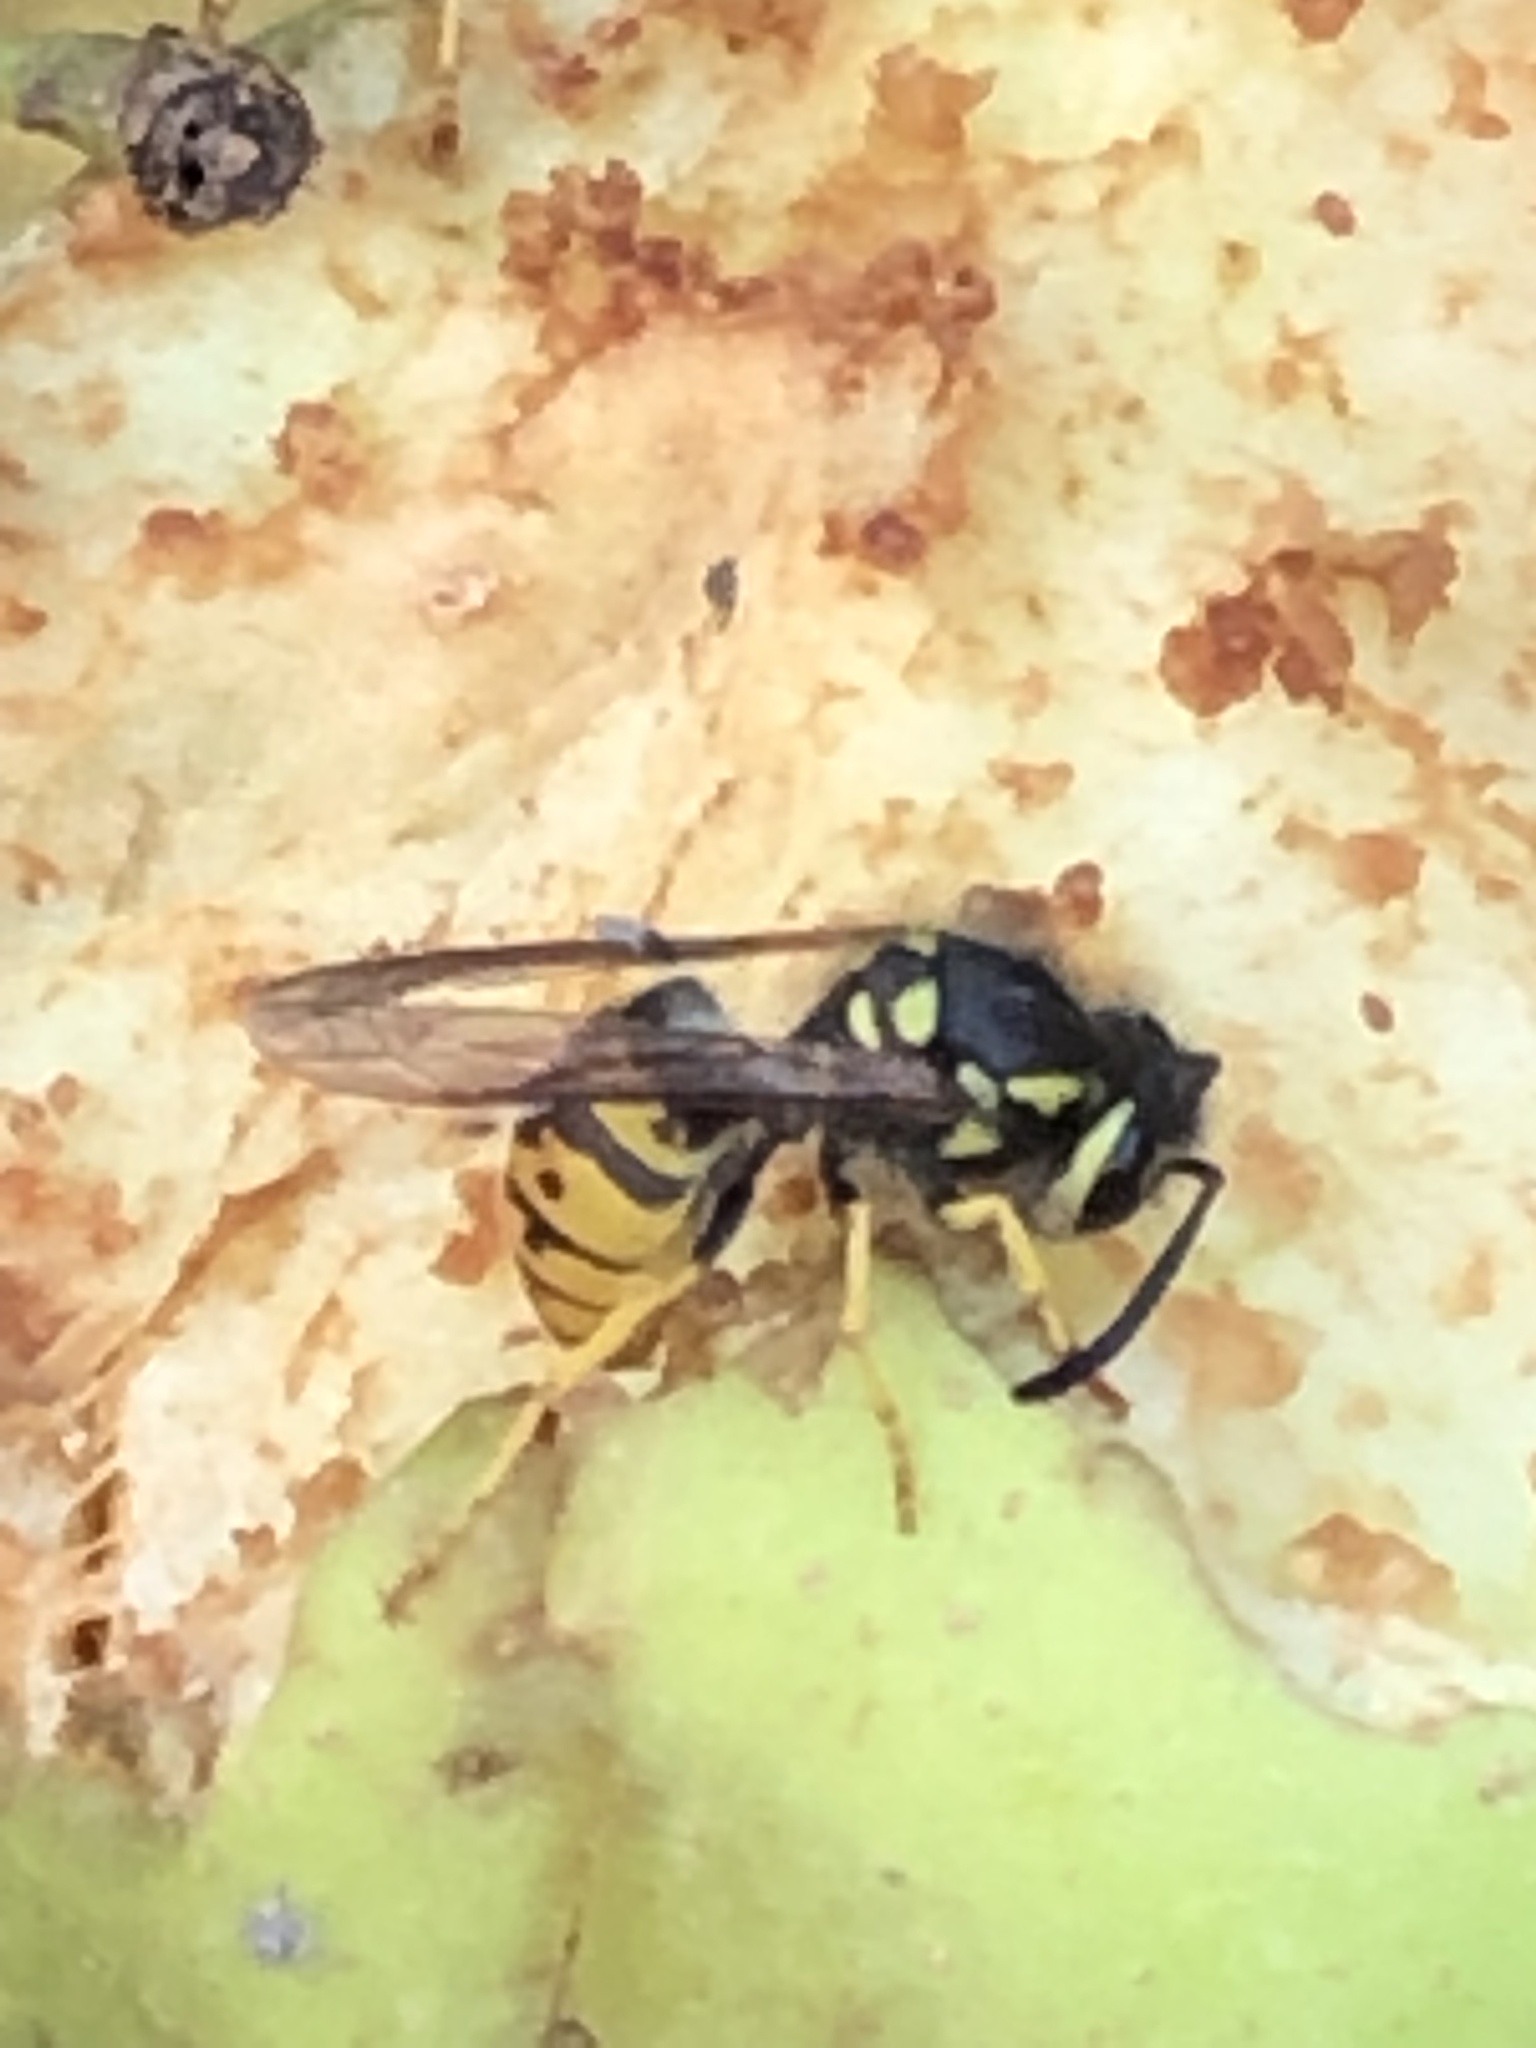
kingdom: Animalia
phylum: Arthropoda
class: Insecta
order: Hymenoptera
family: Vespidae
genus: Vespula
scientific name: Vespula germanica
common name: German wasp
